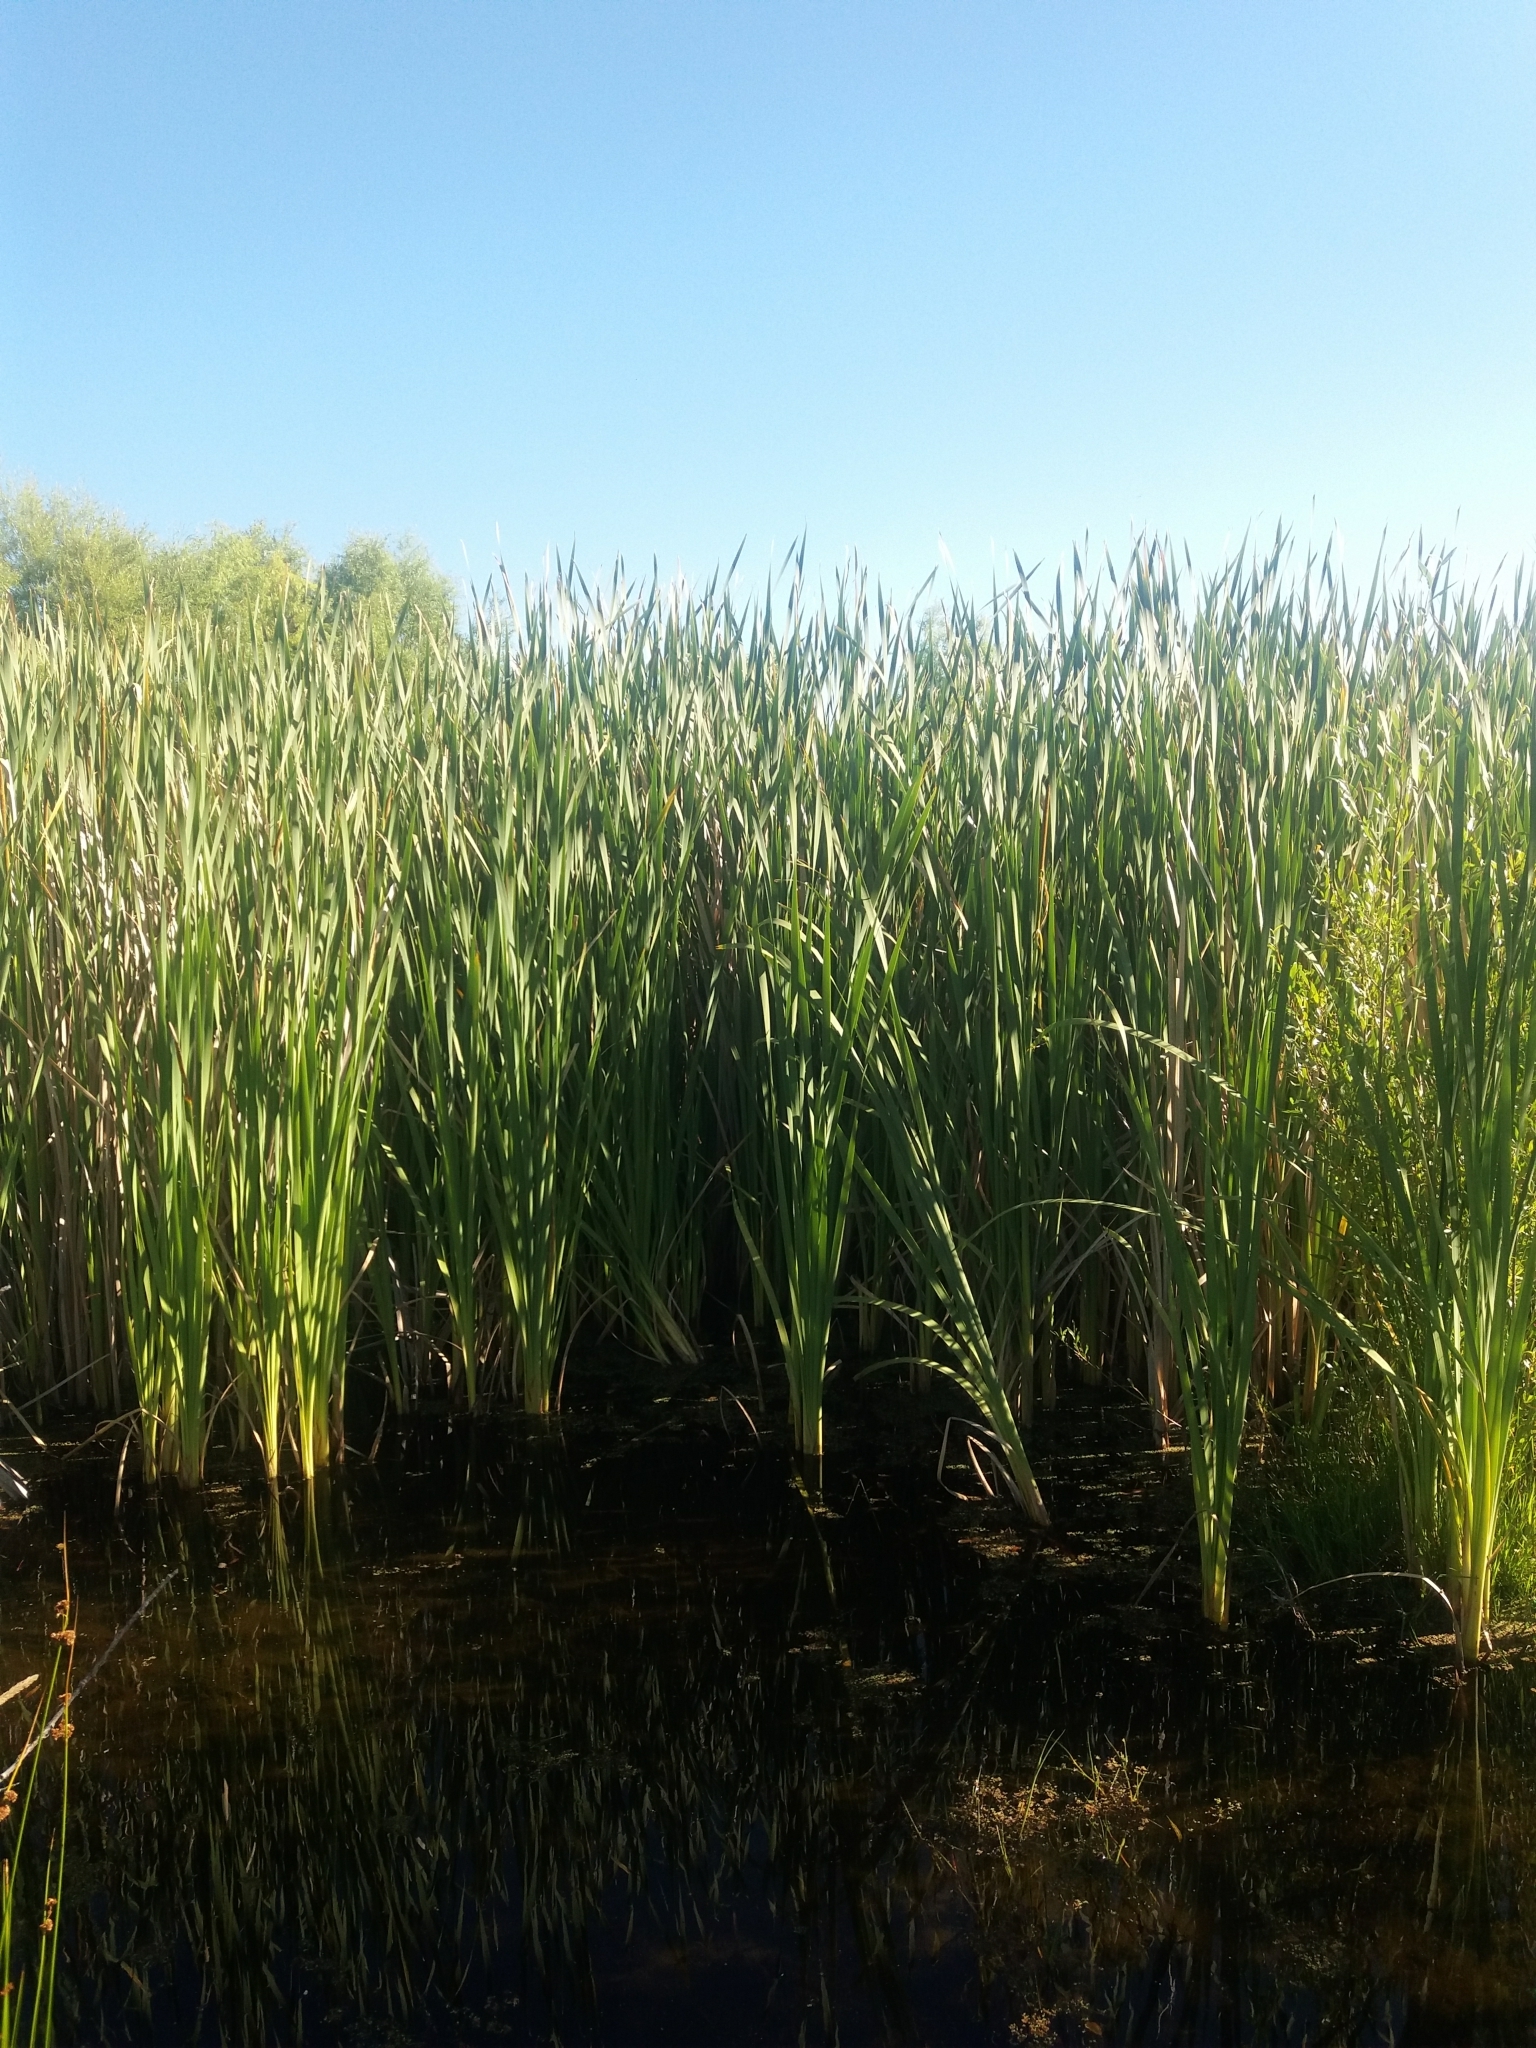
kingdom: Plantae
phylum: Tracheophyta
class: Liliopsida
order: Poales
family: Typhaceae
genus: Typha
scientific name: Typha orientalis
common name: Bullrush
